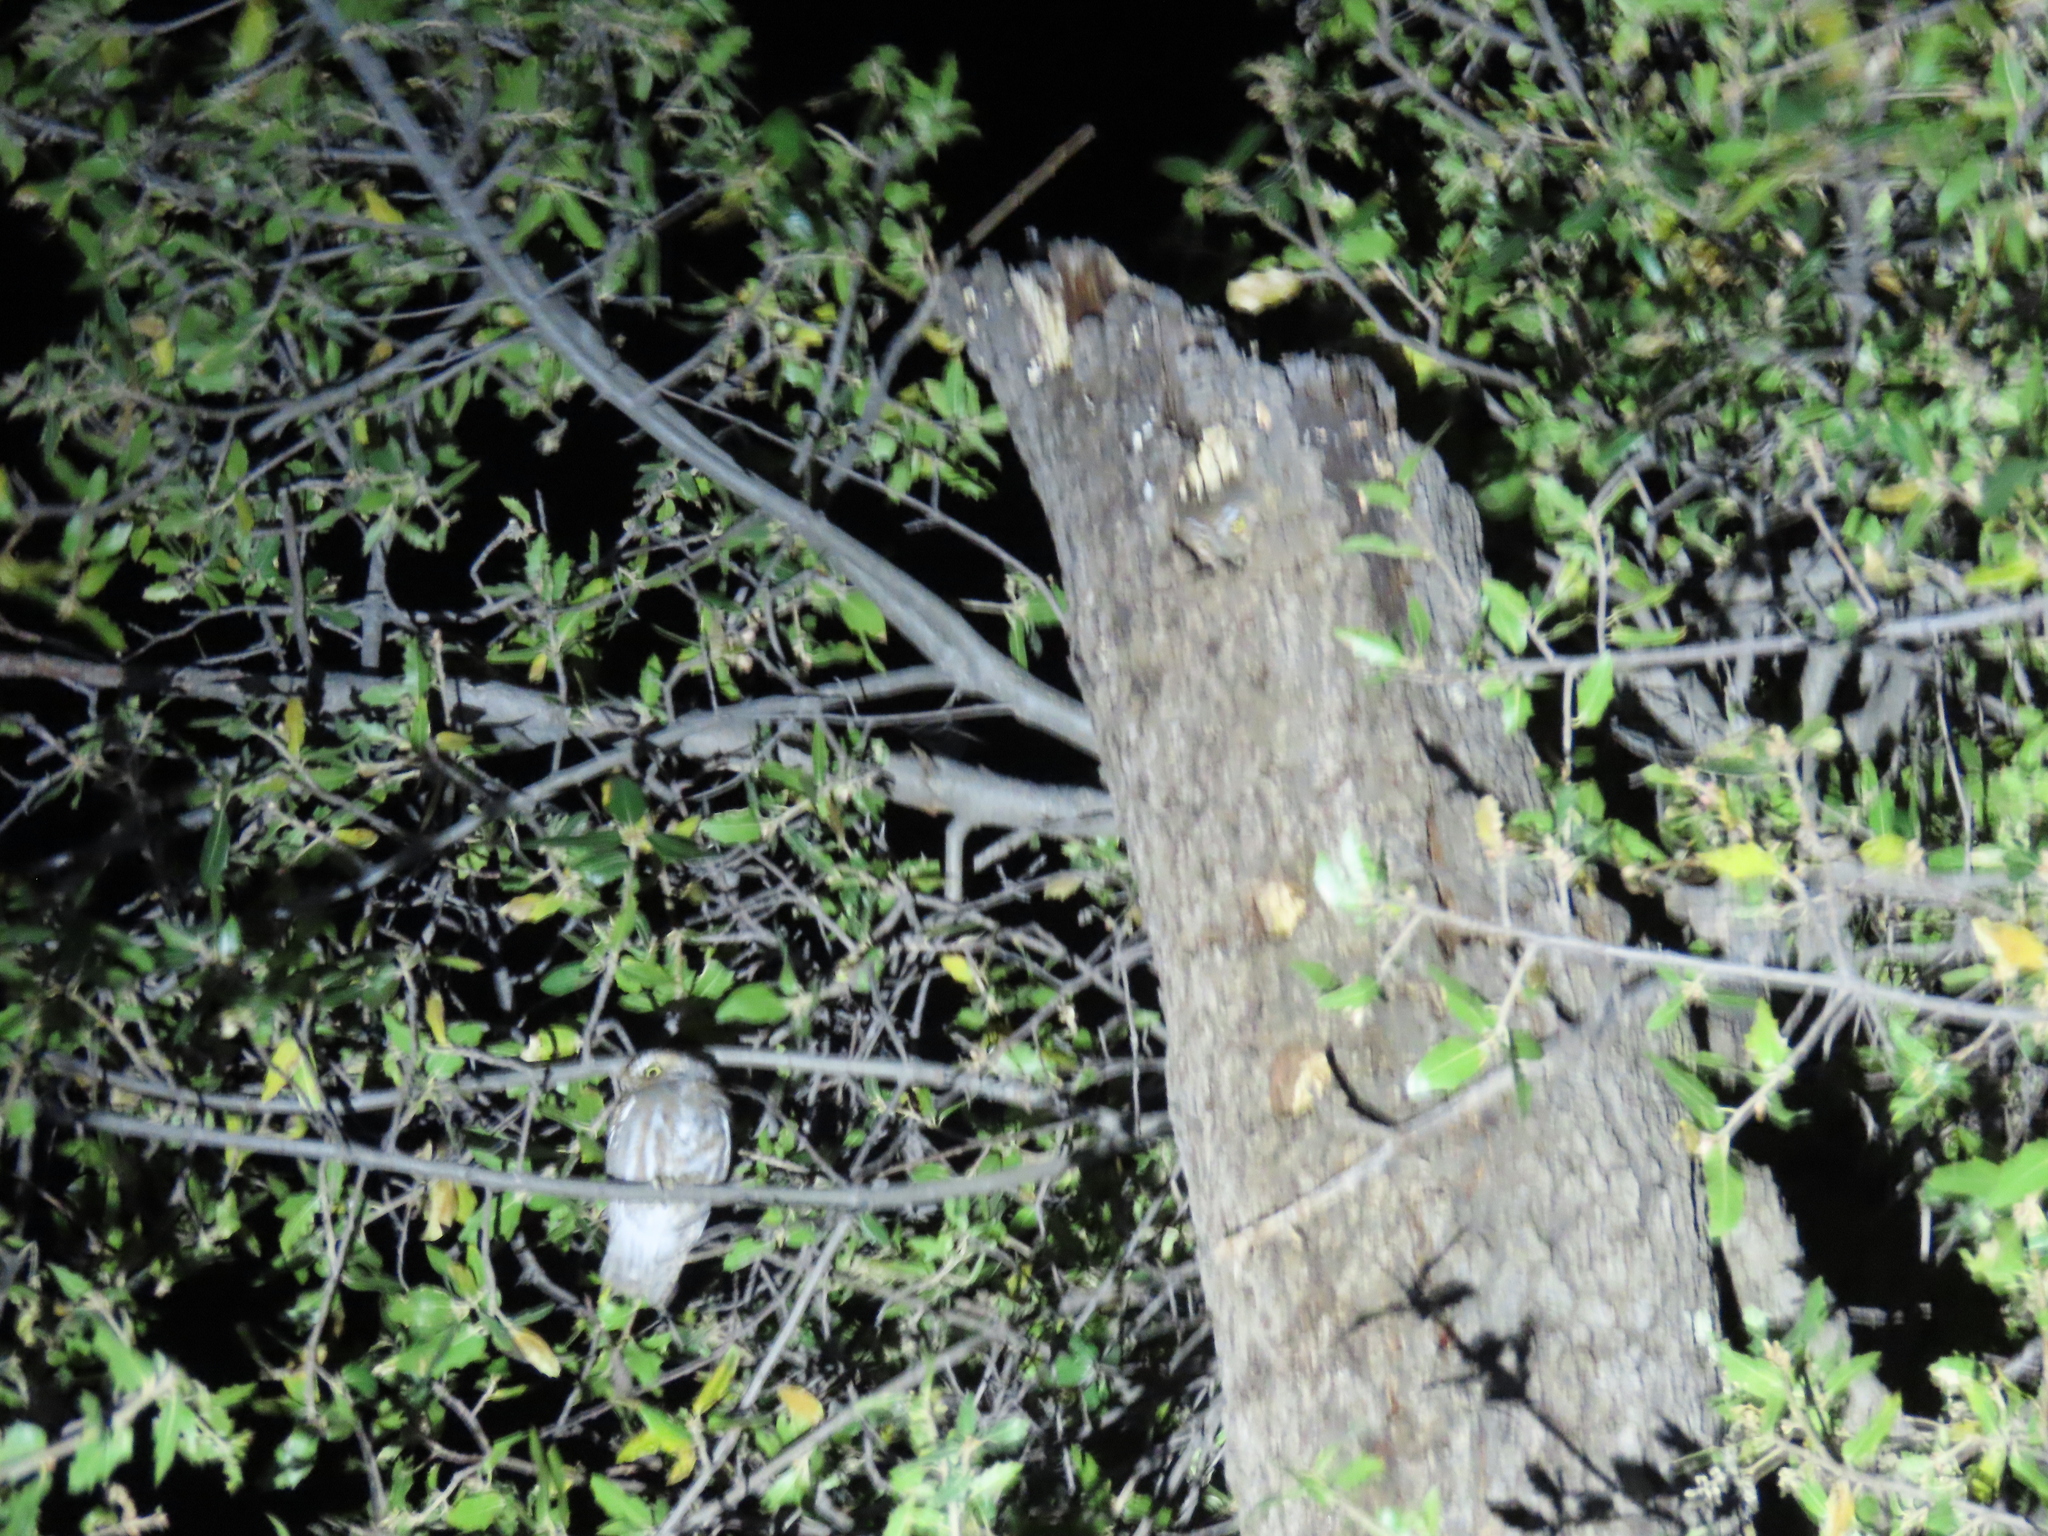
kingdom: Animalia
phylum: Chordata
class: Aves
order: Strigiformes
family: Strigidae
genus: Micrathene
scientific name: Micrathene whitneyi
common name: Elf owl
